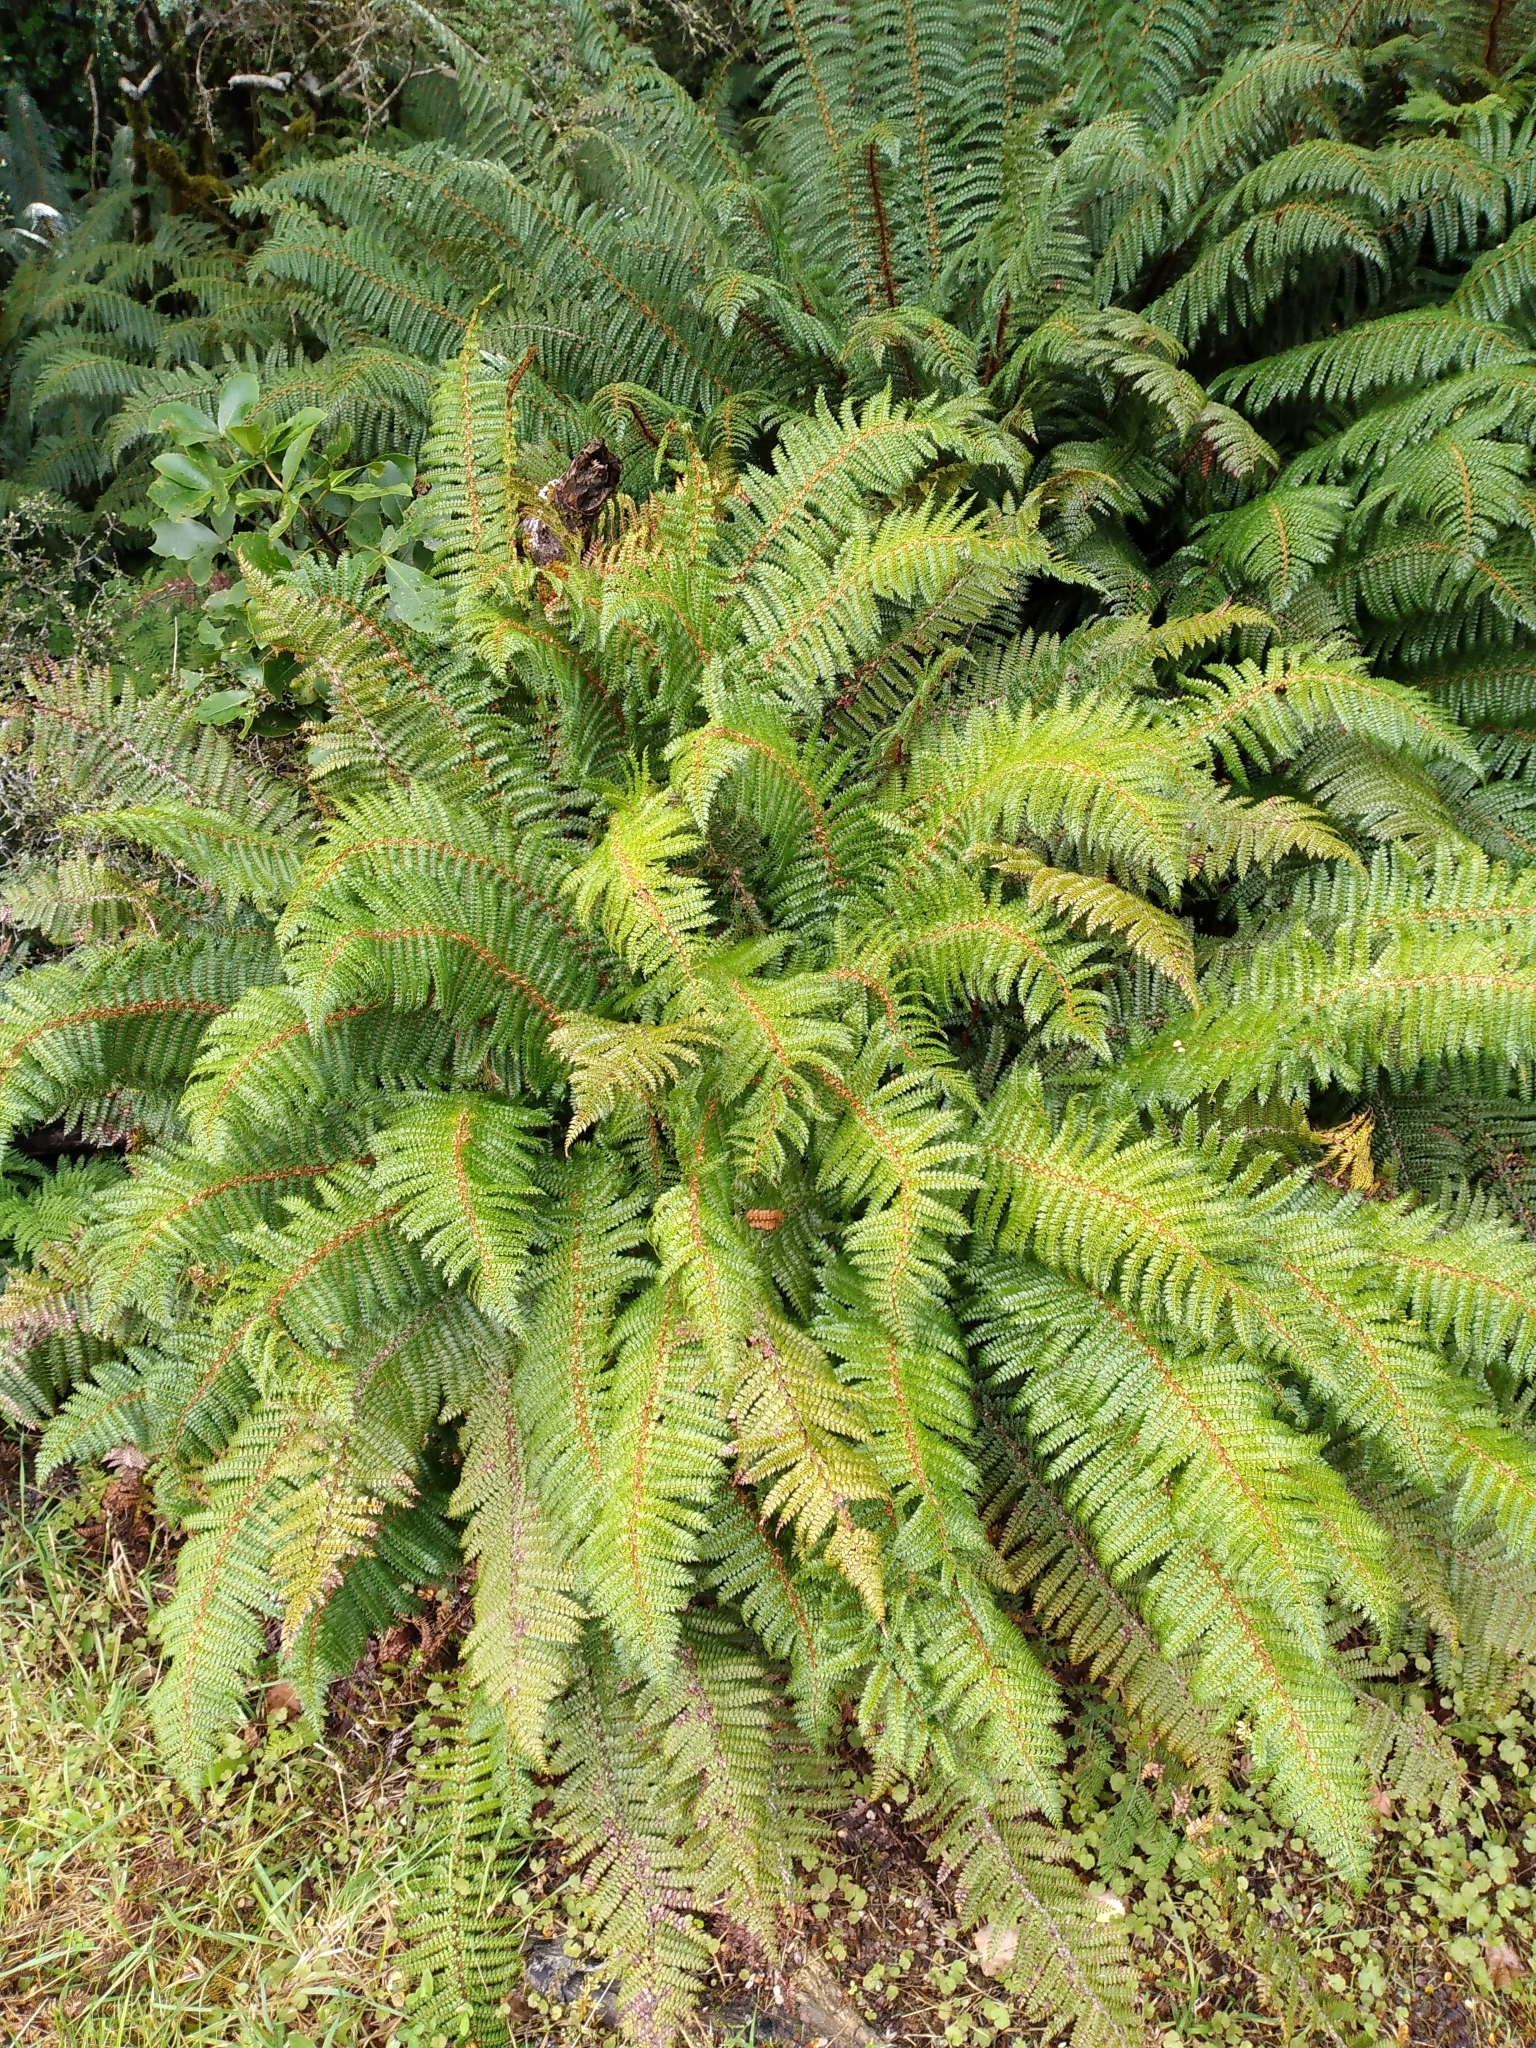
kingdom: Plantae
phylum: Tracheophyta
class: Polypodiopsida
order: Polypodiales
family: Dryopteridaceae
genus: Polystichum
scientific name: Polystichum vestitum
